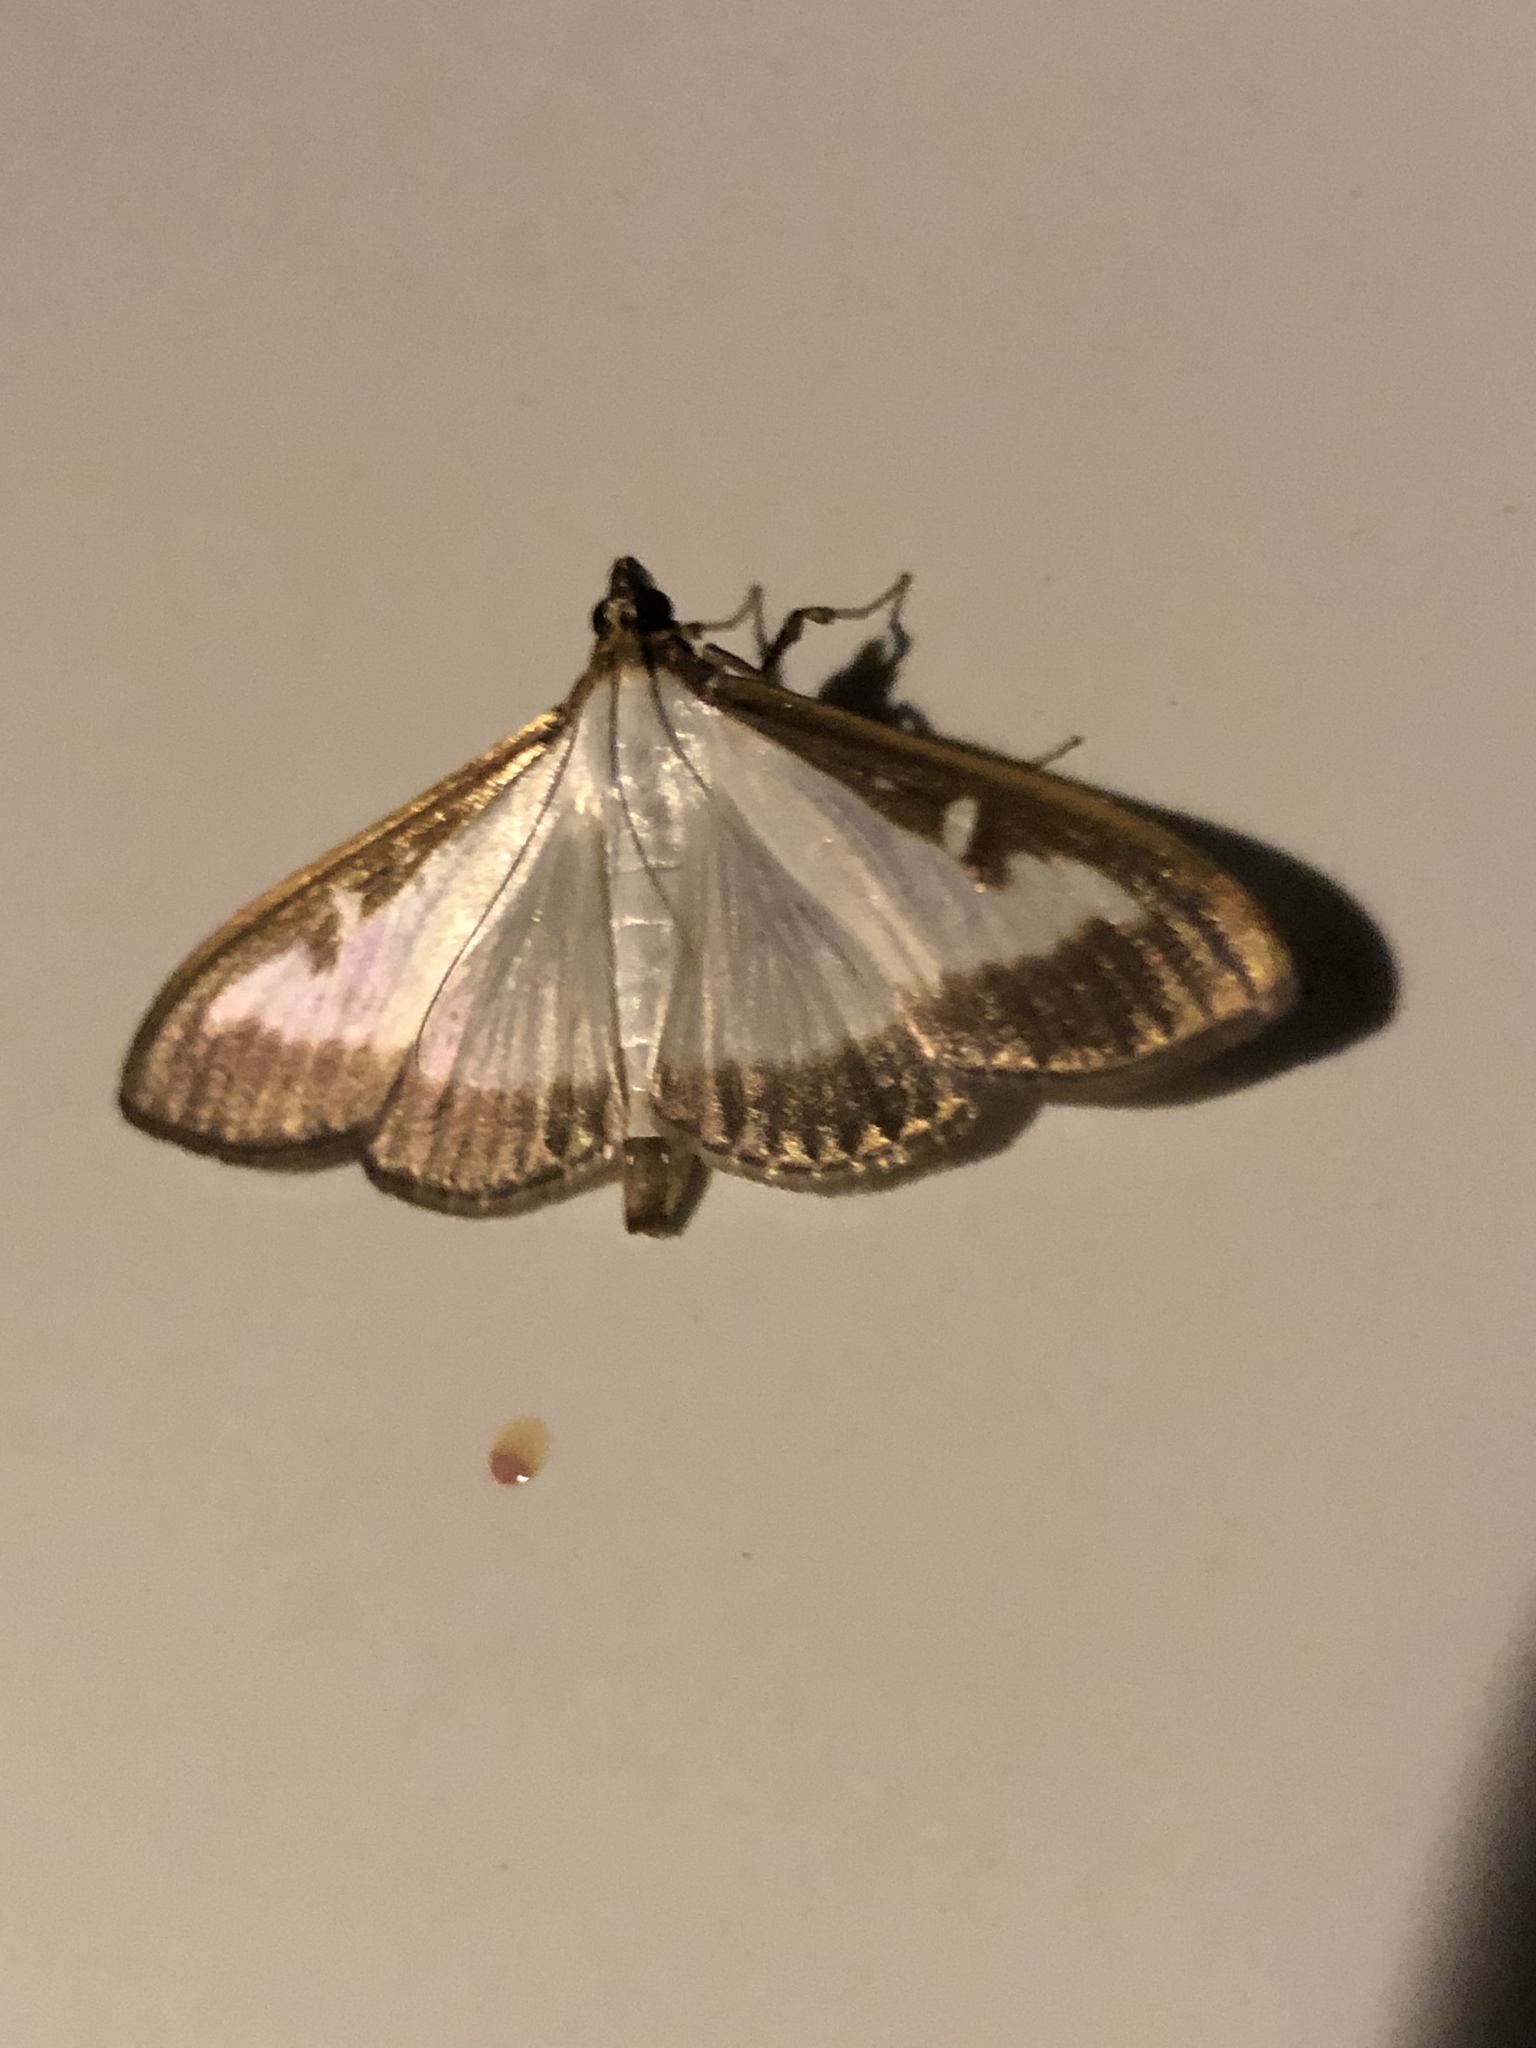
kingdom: Animalia
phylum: Arthropoda
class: Insecta
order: Lepidoptera
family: Crambidae
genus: Cydalima
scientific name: Cydalima perspectalis
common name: Box tree moth
